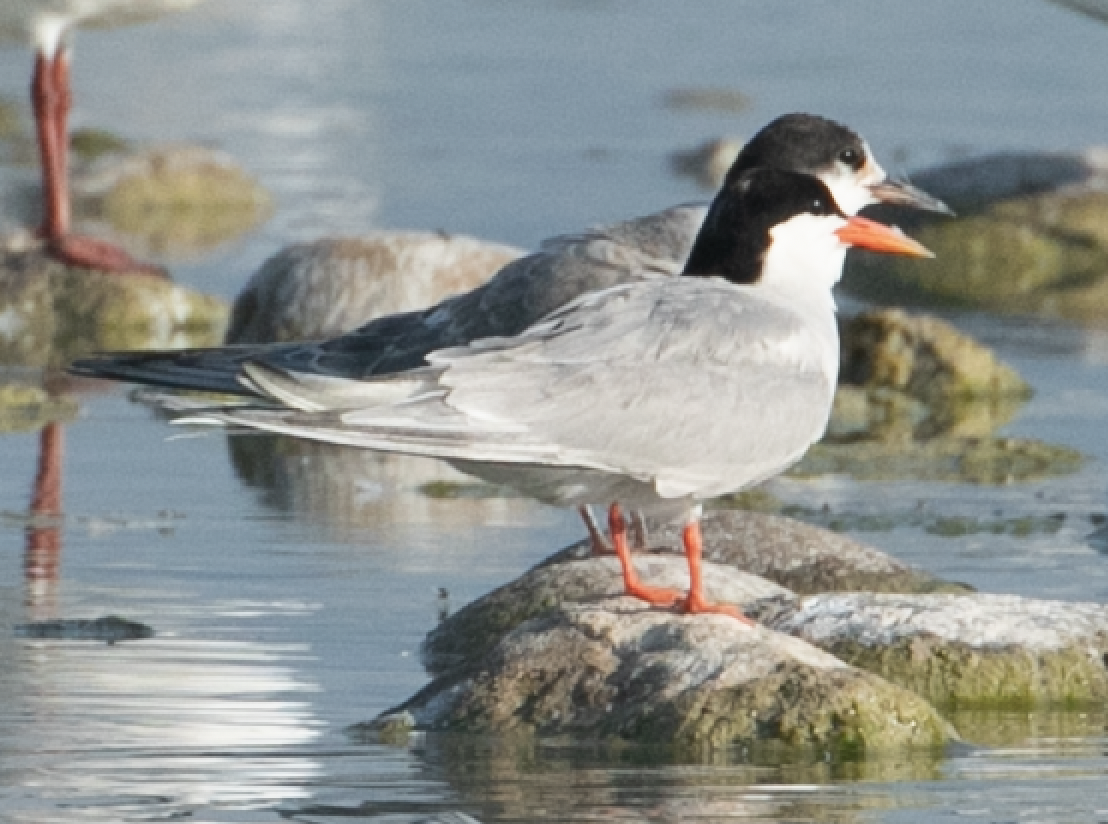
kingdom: Animalia
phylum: Chordata
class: Aves
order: Charadriiformes
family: Laridae
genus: Sterna
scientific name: Sterna hirundo
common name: Common tern
